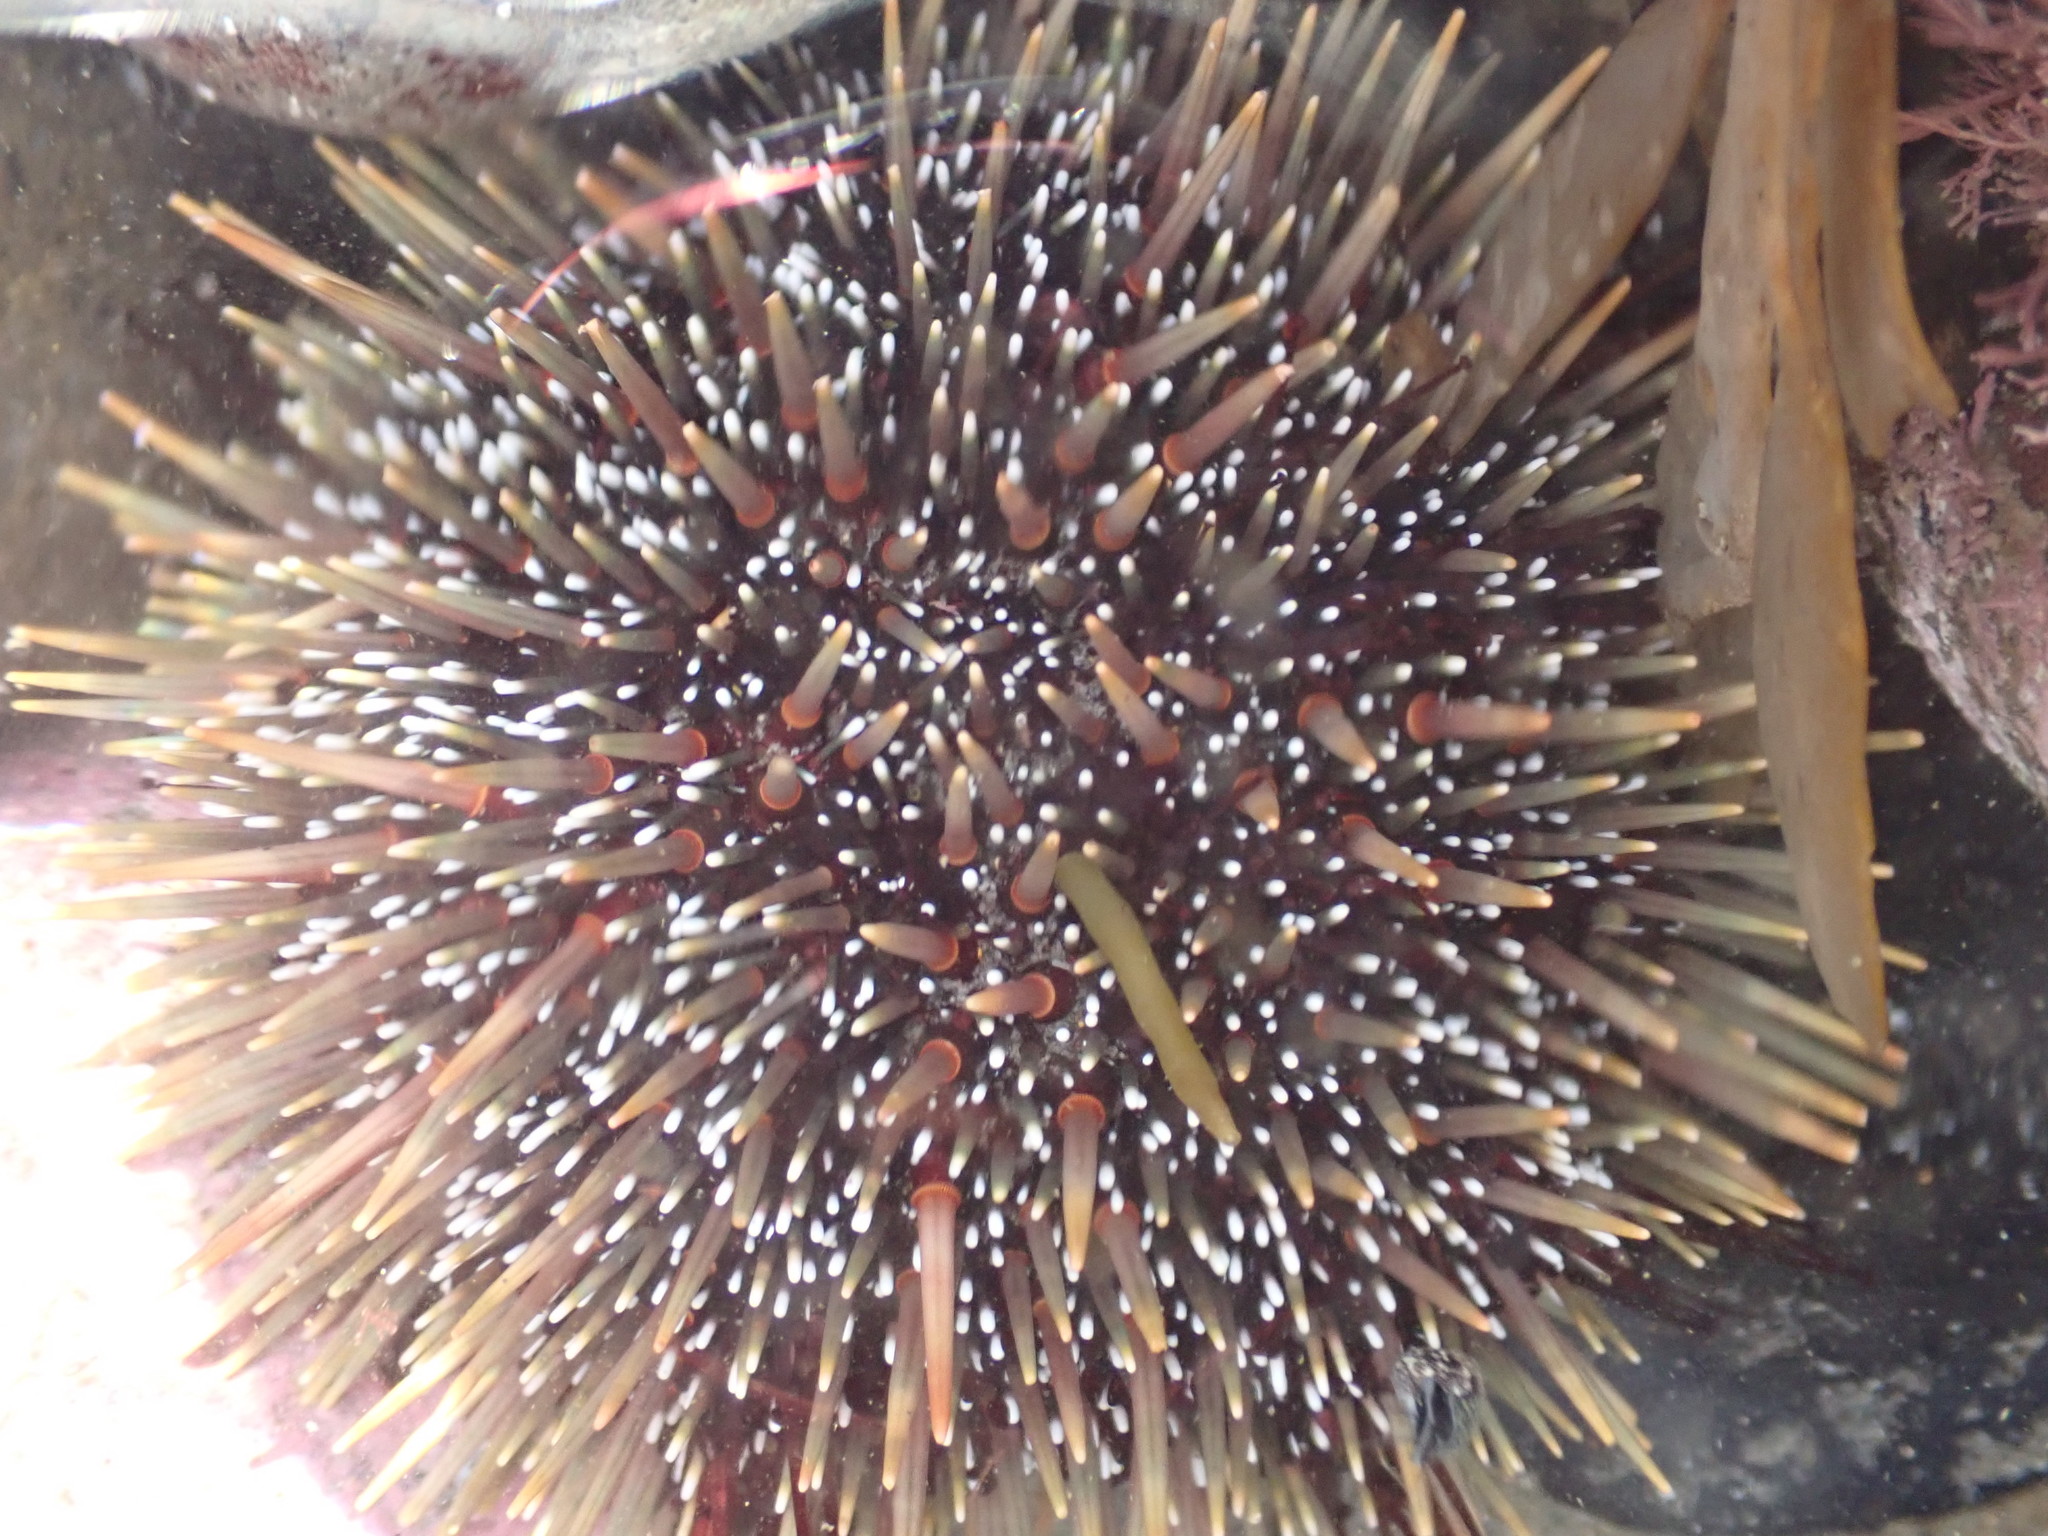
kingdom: Animalia
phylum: Echinodermata
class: Echinoidea
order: Camarodonta
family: Echinometridae
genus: Evechinus
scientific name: Evechinus chloroticus
